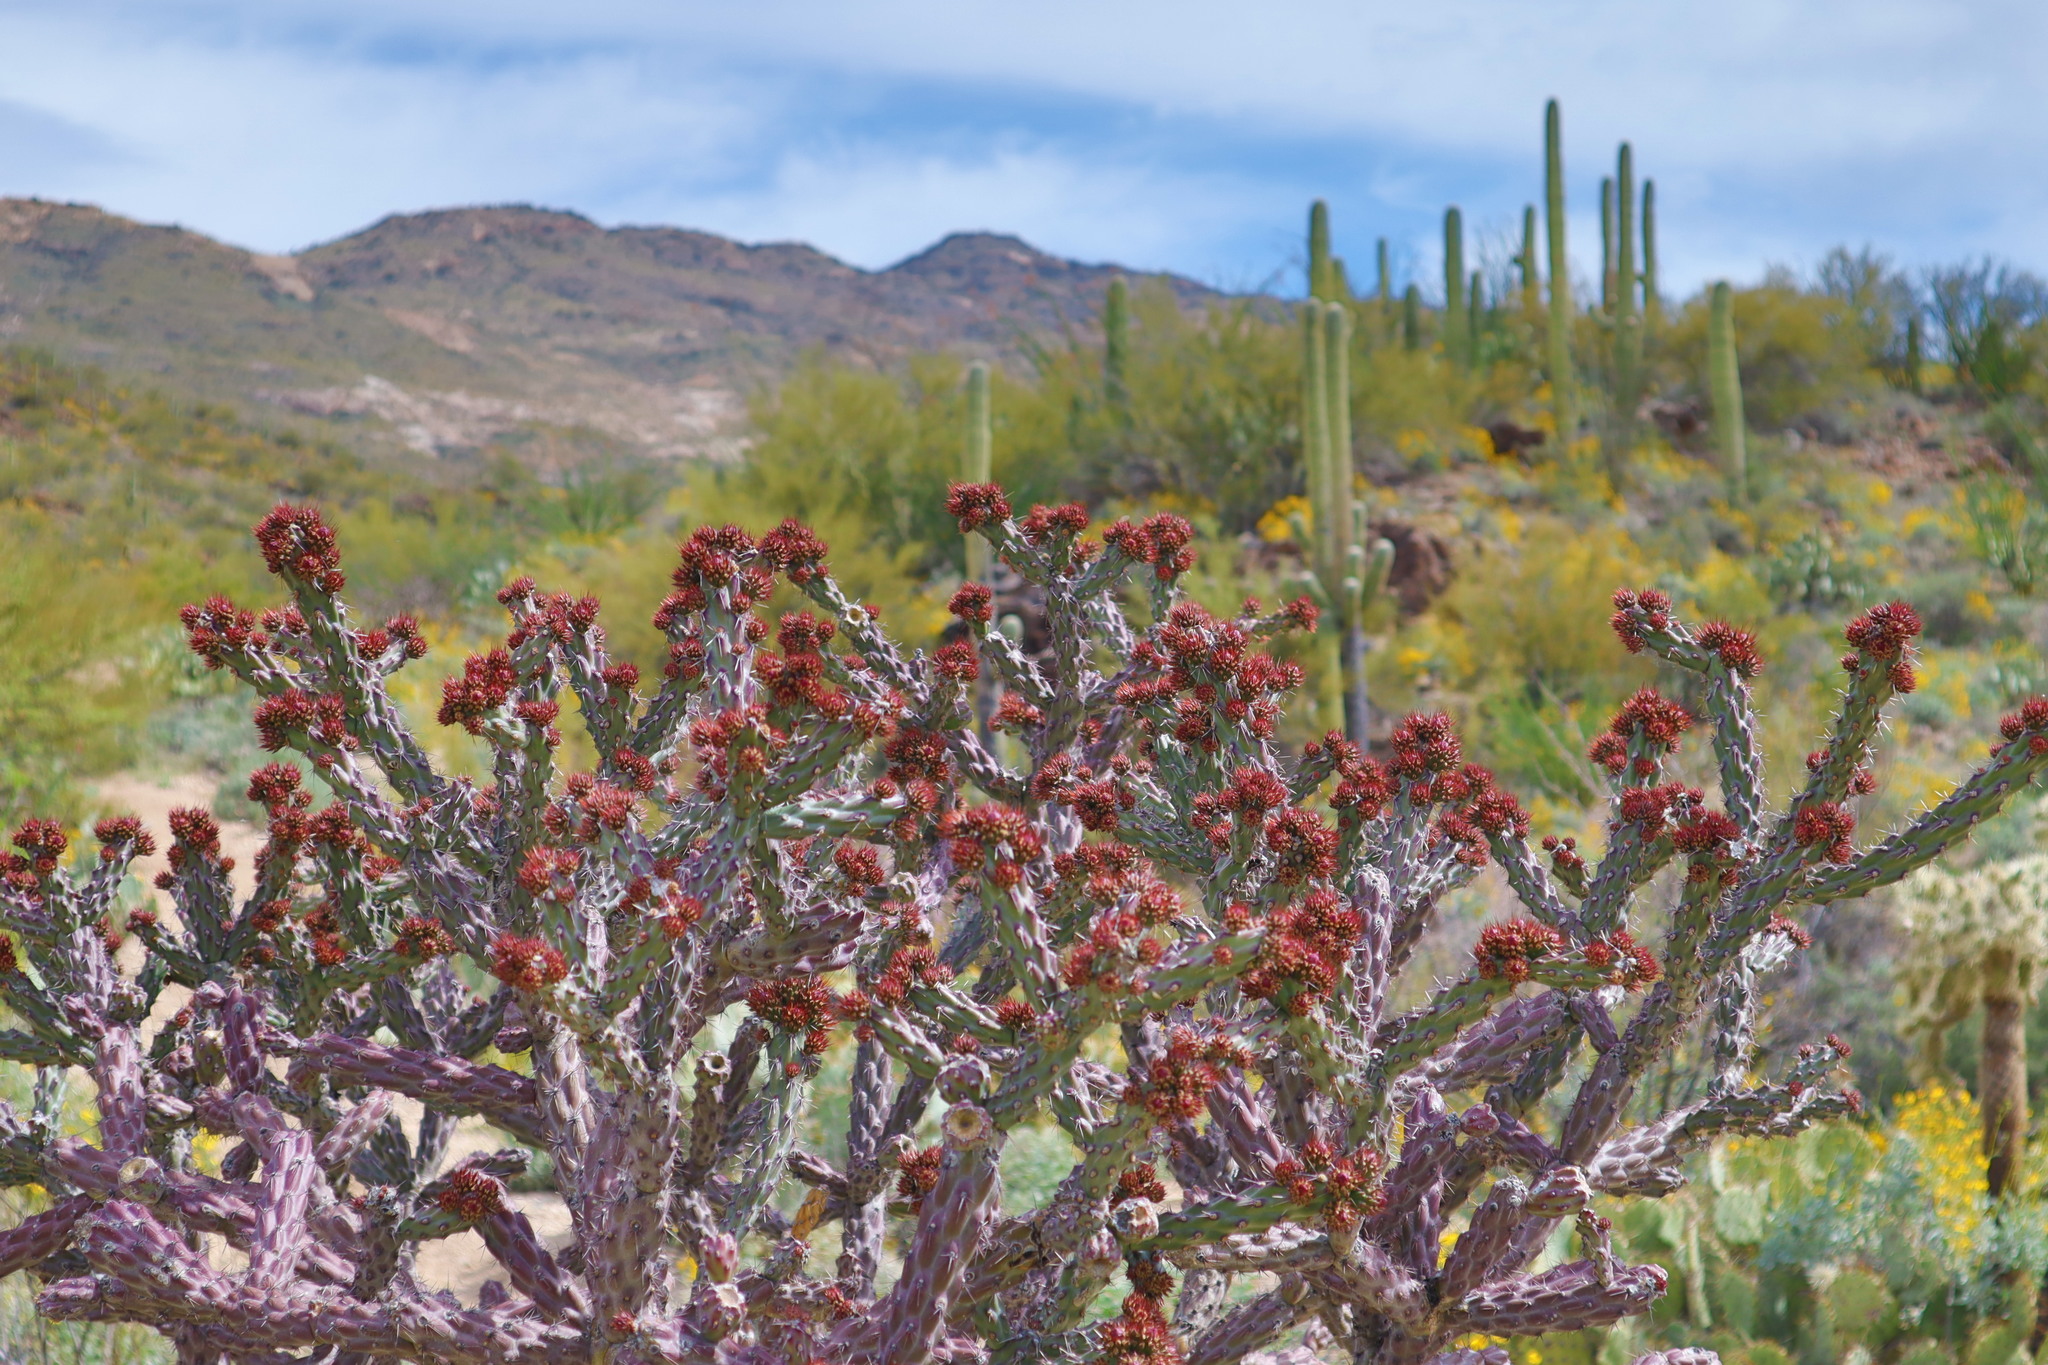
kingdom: Plantae
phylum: Tracheophyta
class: Magnoliopsida
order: Caryophyllales
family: Cactaceae
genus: Cylindropuntia
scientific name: Cylindropuntia thurberi
